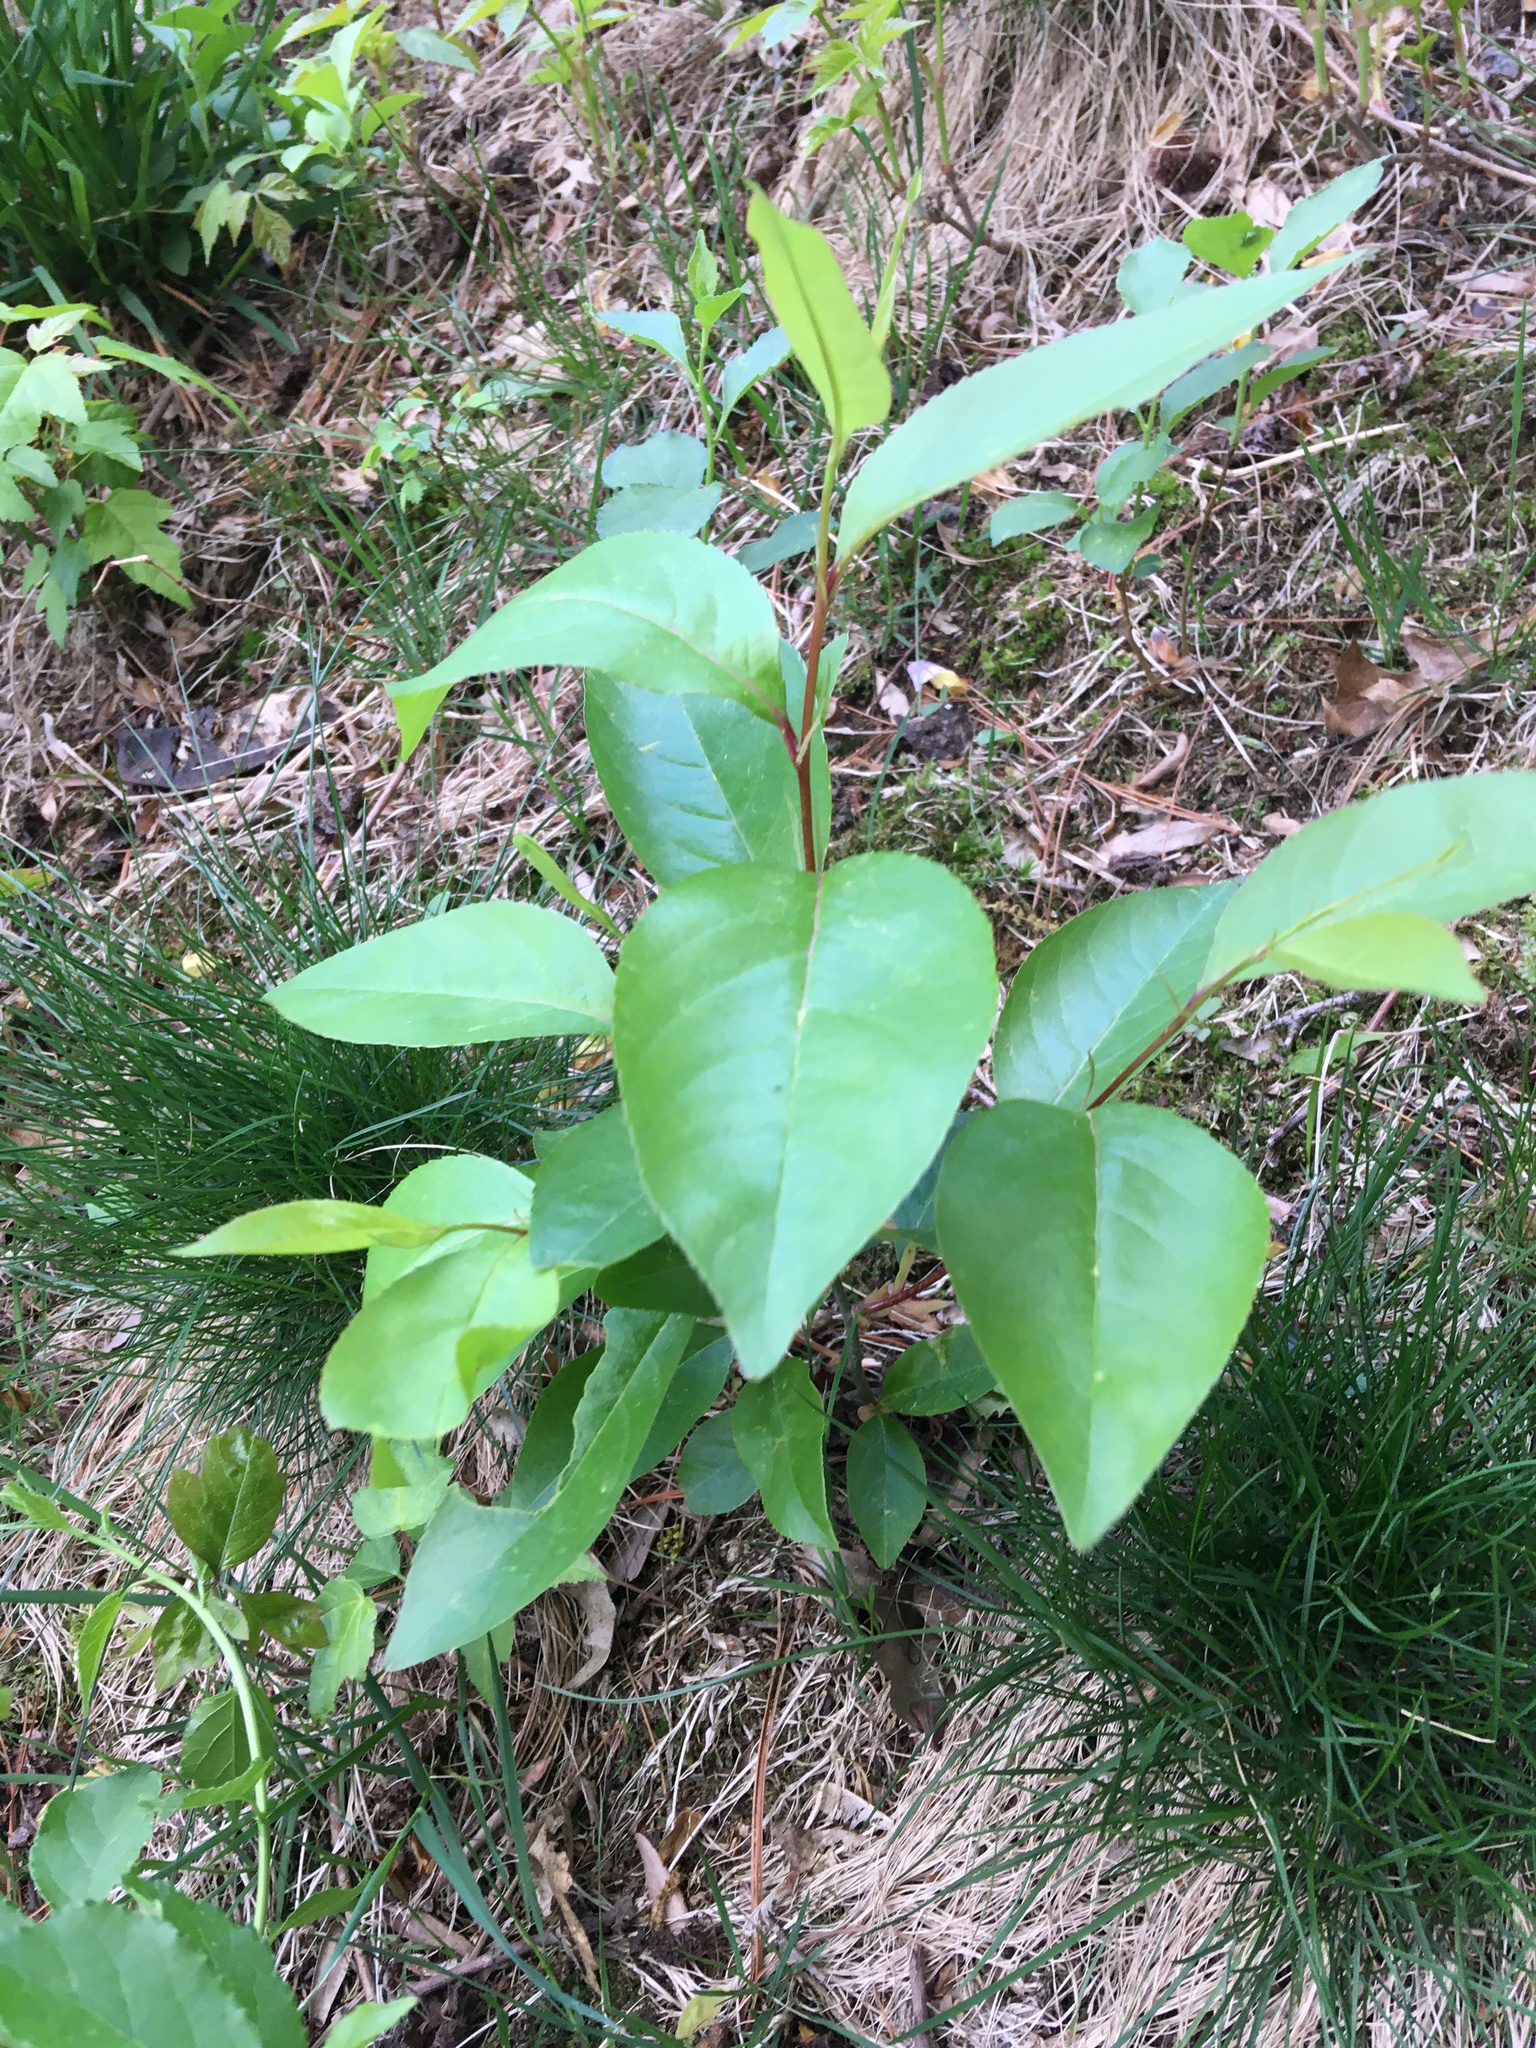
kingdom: Plantae
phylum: Tracheophyta
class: Magnoliopsida
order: Rosales
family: Rosaceae
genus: Prunus
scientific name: Prunus serotina
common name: Black cherry
